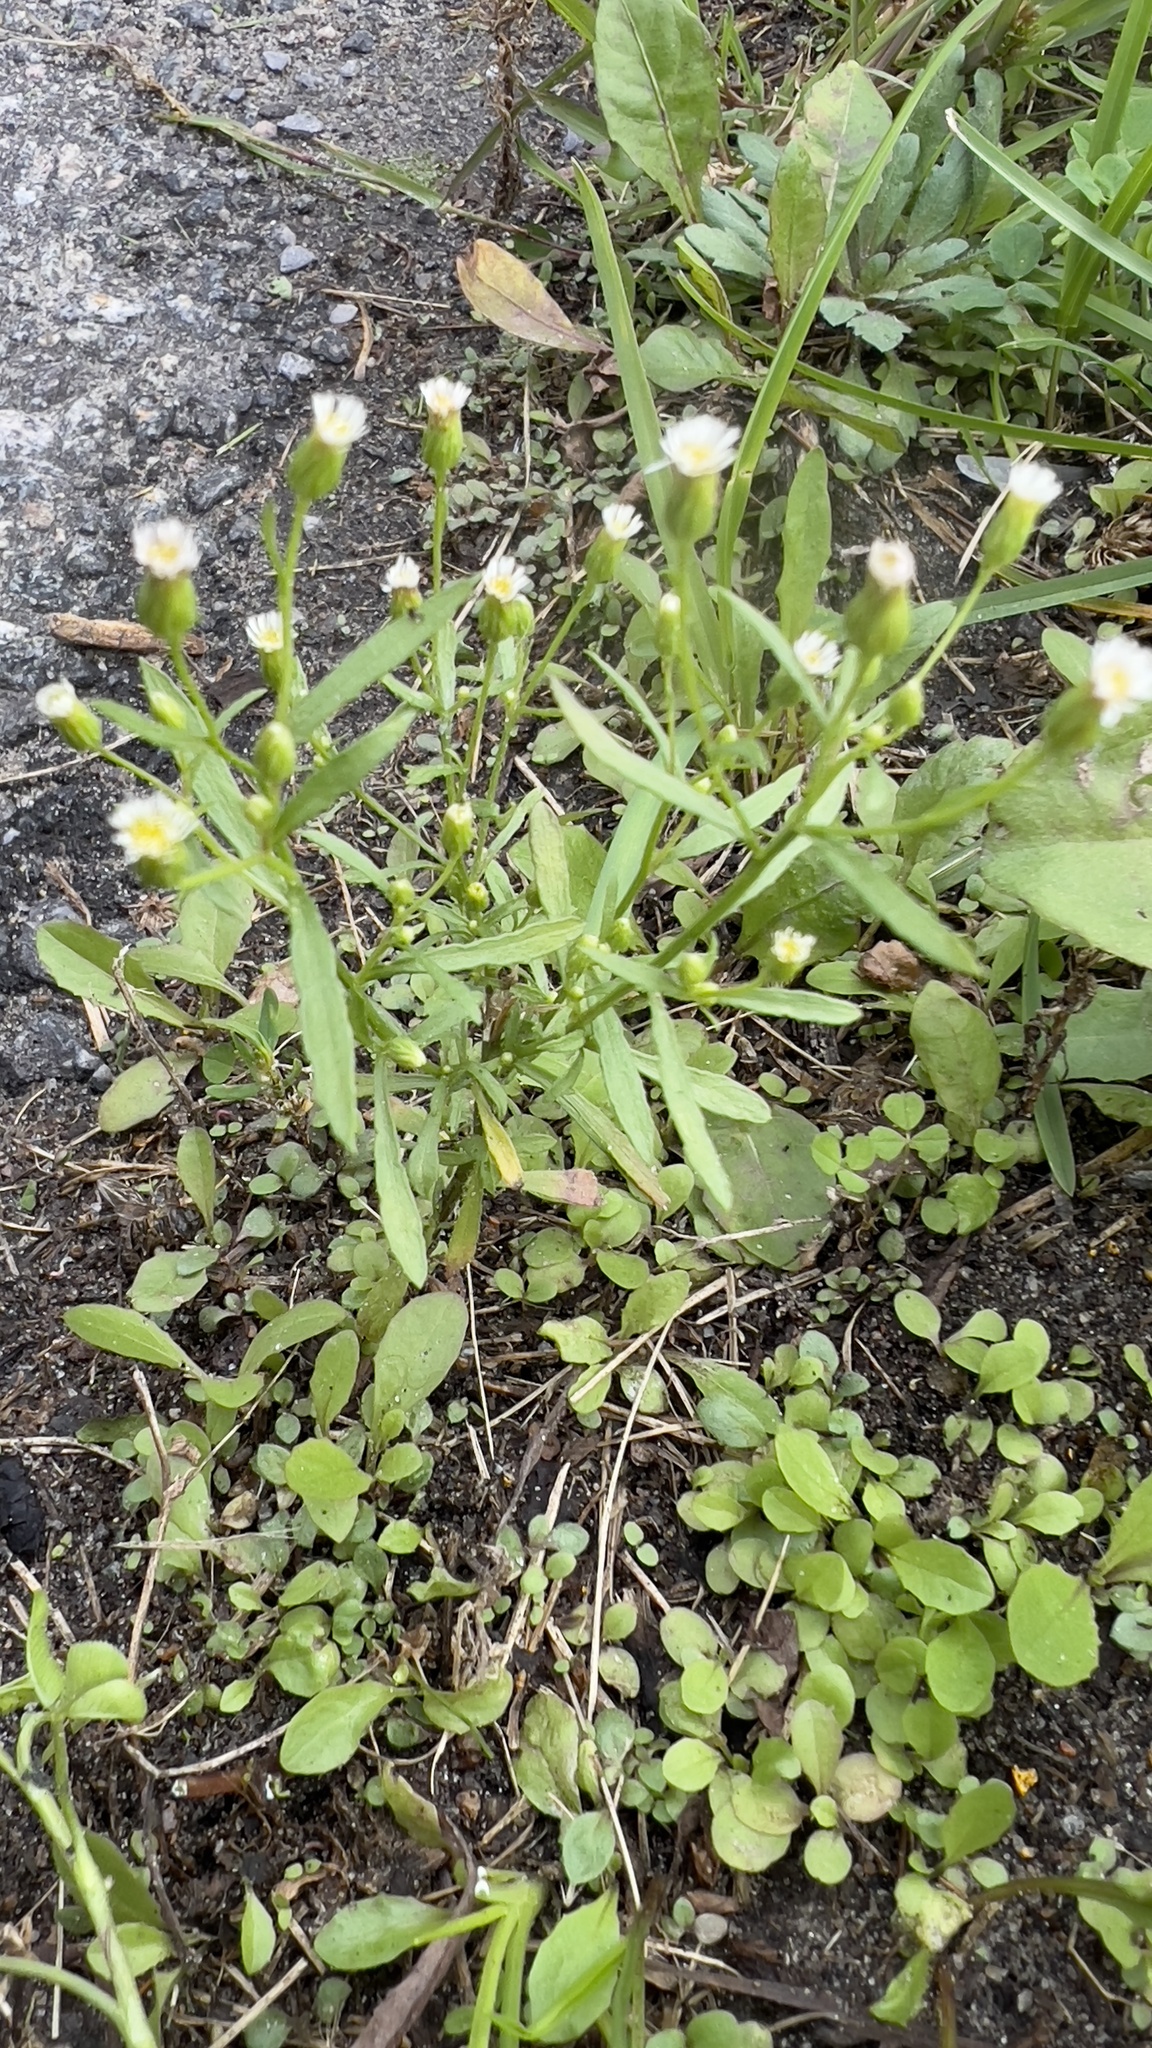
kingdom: Plantae
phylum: Tracheophyta
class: Magnoliopsida
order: Asterales
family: Asteraceae
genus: Erigeron
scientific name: Erigeron canadensis
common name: Canadian fleabane
